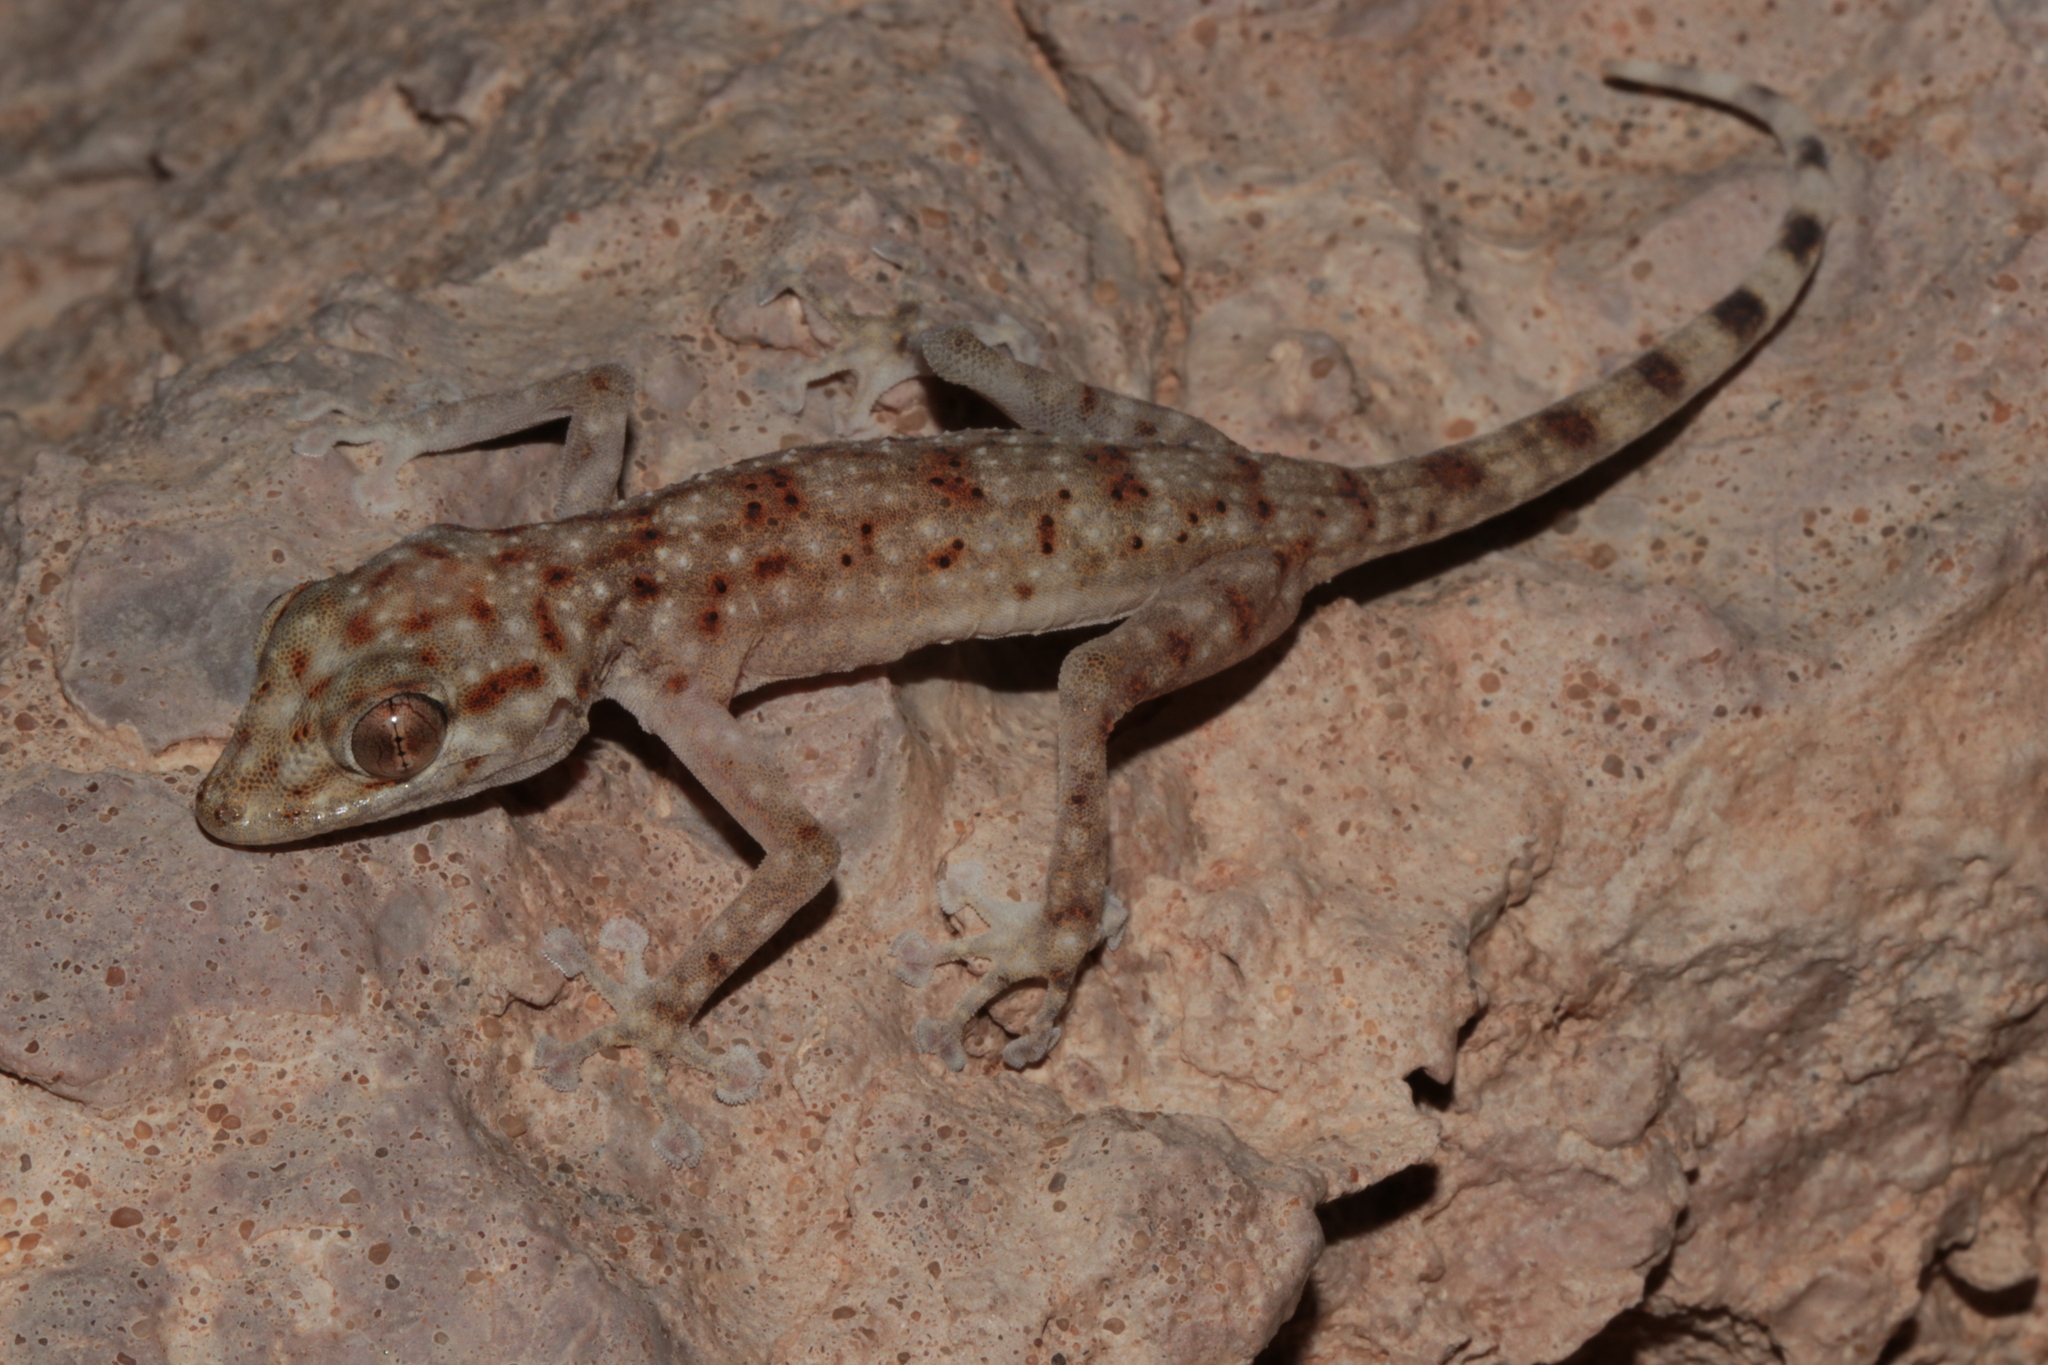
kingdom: Animalia
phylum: Chordata
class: Squamata
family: Phyllodactylidae
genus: Ptyodactylus
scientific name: Ptyodactylus hasselquistii
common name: Hasselquist’s fan-footed gecko
